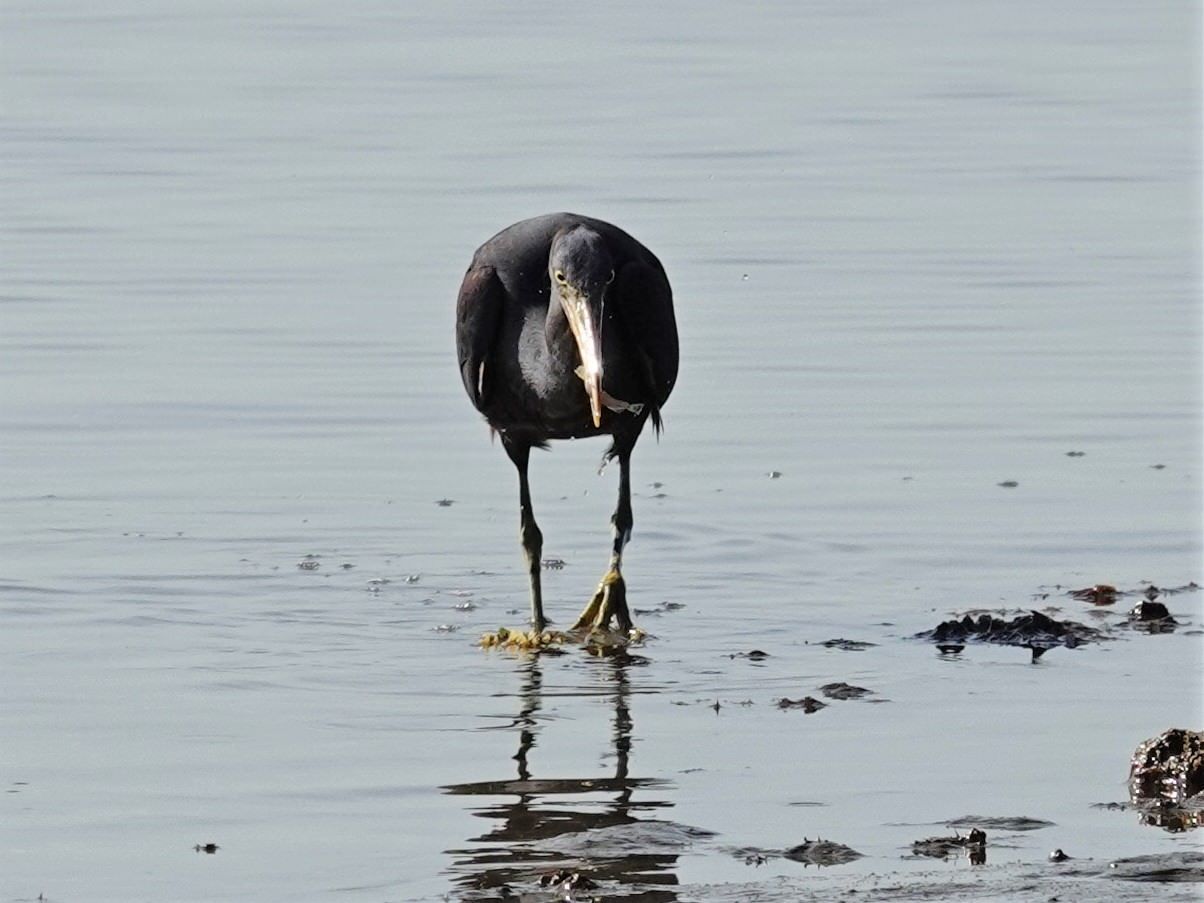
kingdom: Animalia
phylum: Chordata
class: Aves
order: Pelecaniformes
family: Ardeidae
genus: Egretta
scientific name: Egretta sacra
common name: Pacific reef heron
